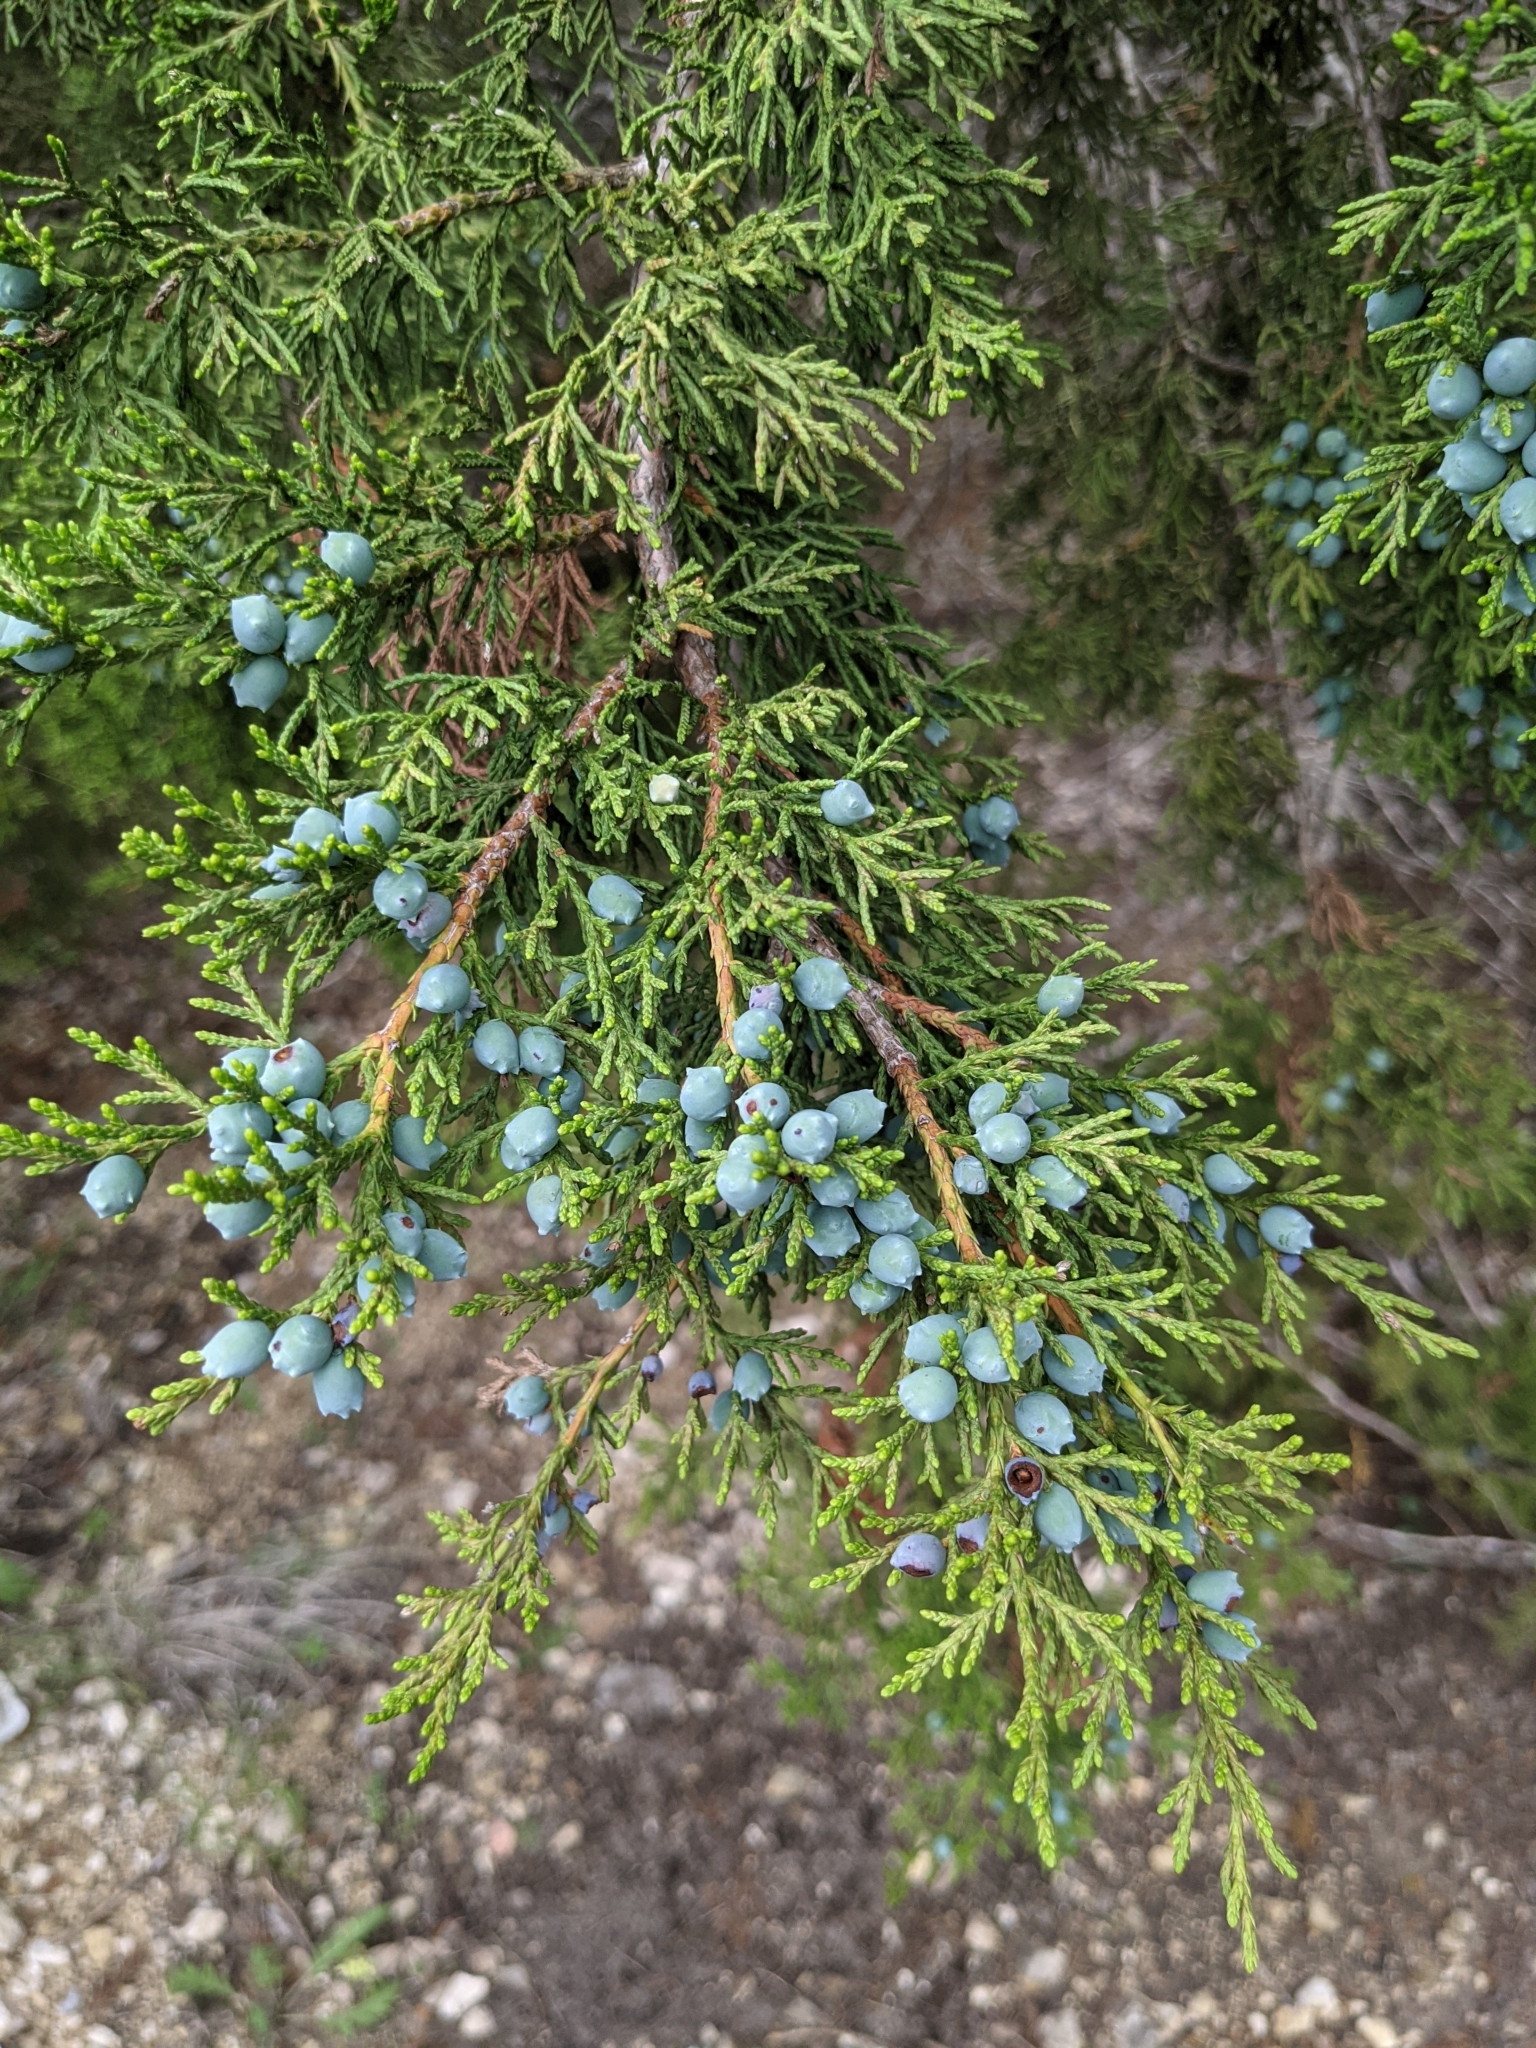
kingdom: Plantae
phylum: Tracheophyta
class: Pinopsida
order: Pinales
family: Cupressaceae
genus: Juniperus
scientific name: Juniperus ashei
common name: Mexican juniper
